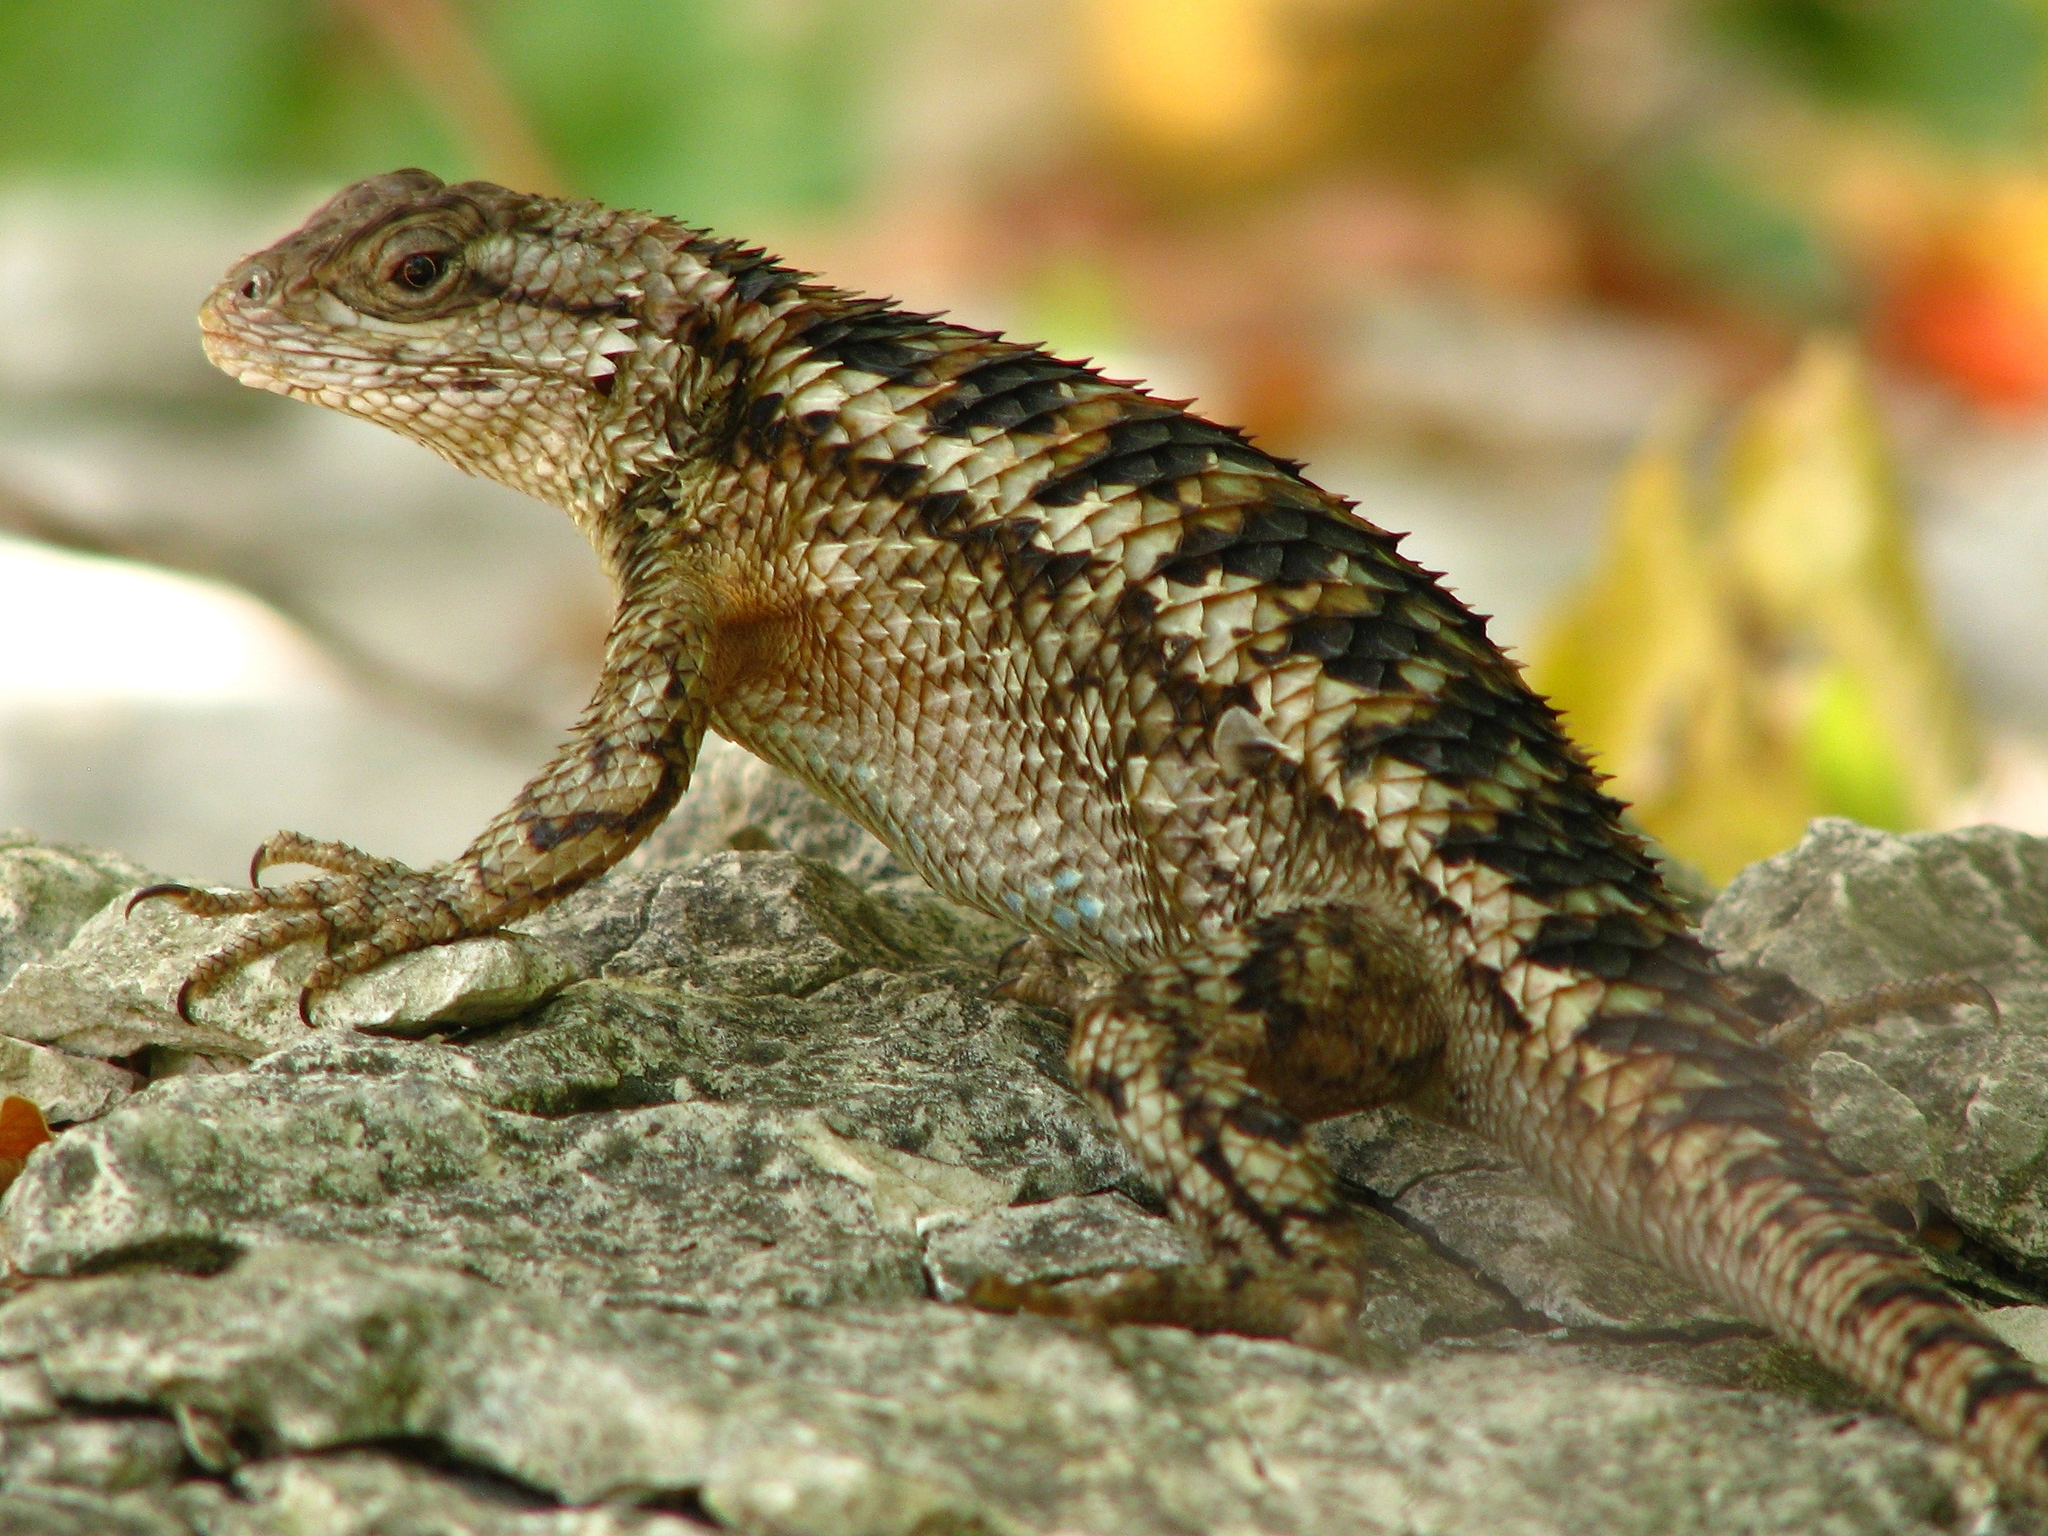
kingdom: Animalia
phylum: Chordata
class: Squamata
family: Phrynosomatidae
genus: Sceloporus
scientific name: Sceloporus olivaceus
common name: Texas spiny lizard
